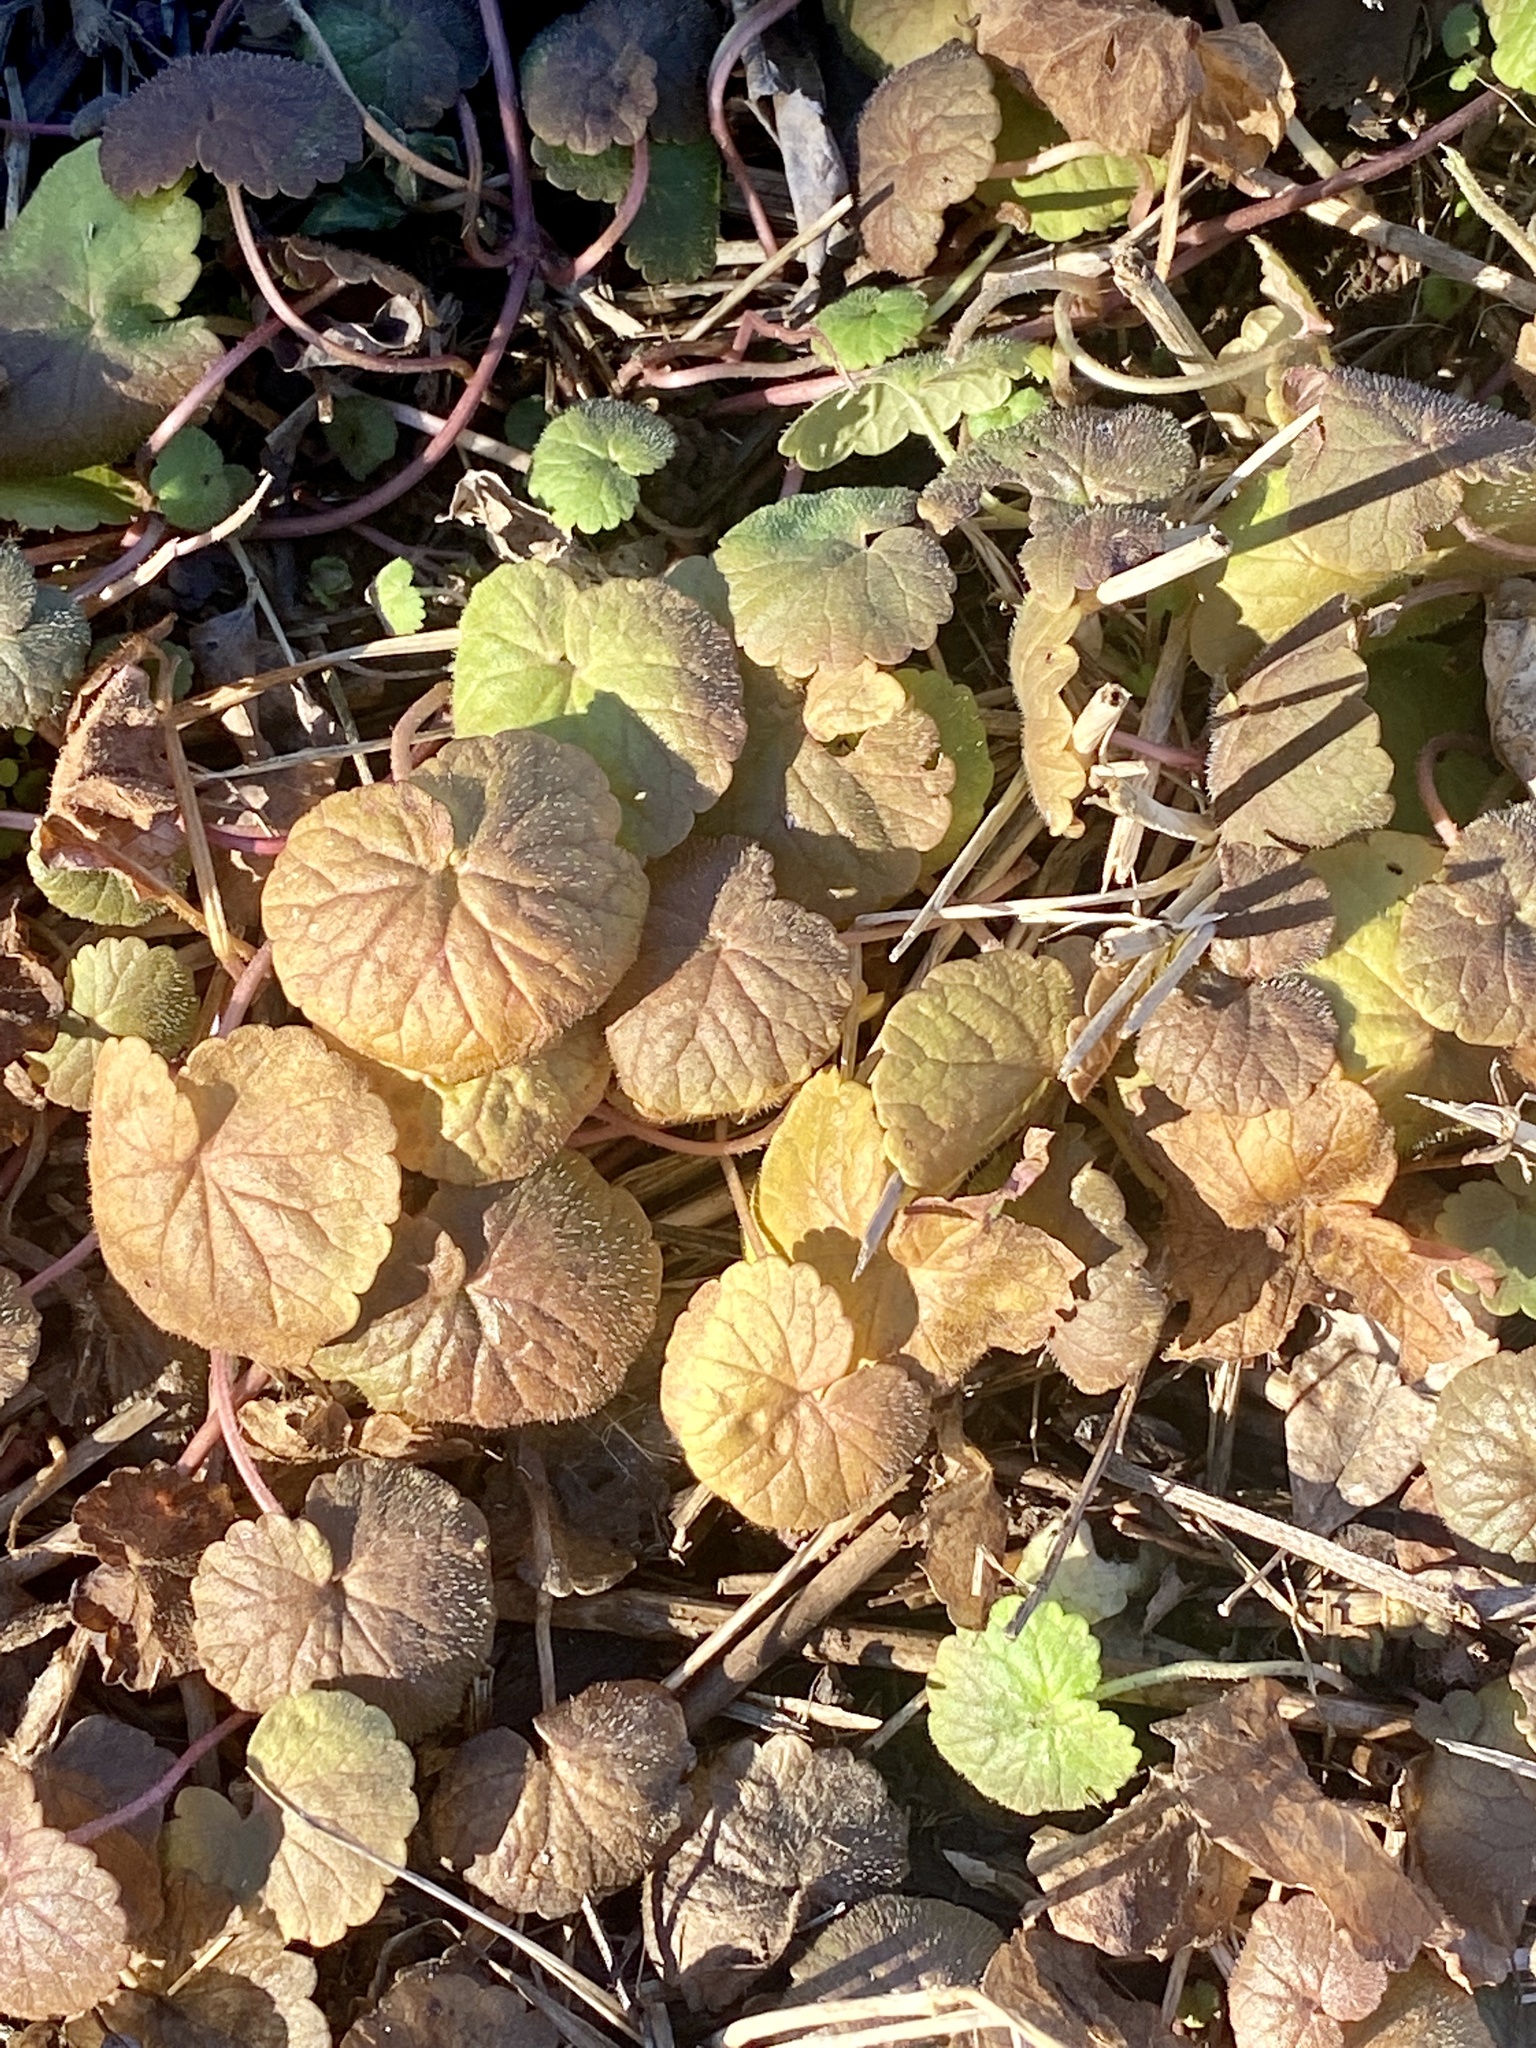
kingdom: Plantae
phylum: Tracheophyta
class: Magnoliopsida
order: Lamiales
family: Lamiaceae
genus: Glechoma
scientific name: Glechoma hederacea
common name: Ground ivy
